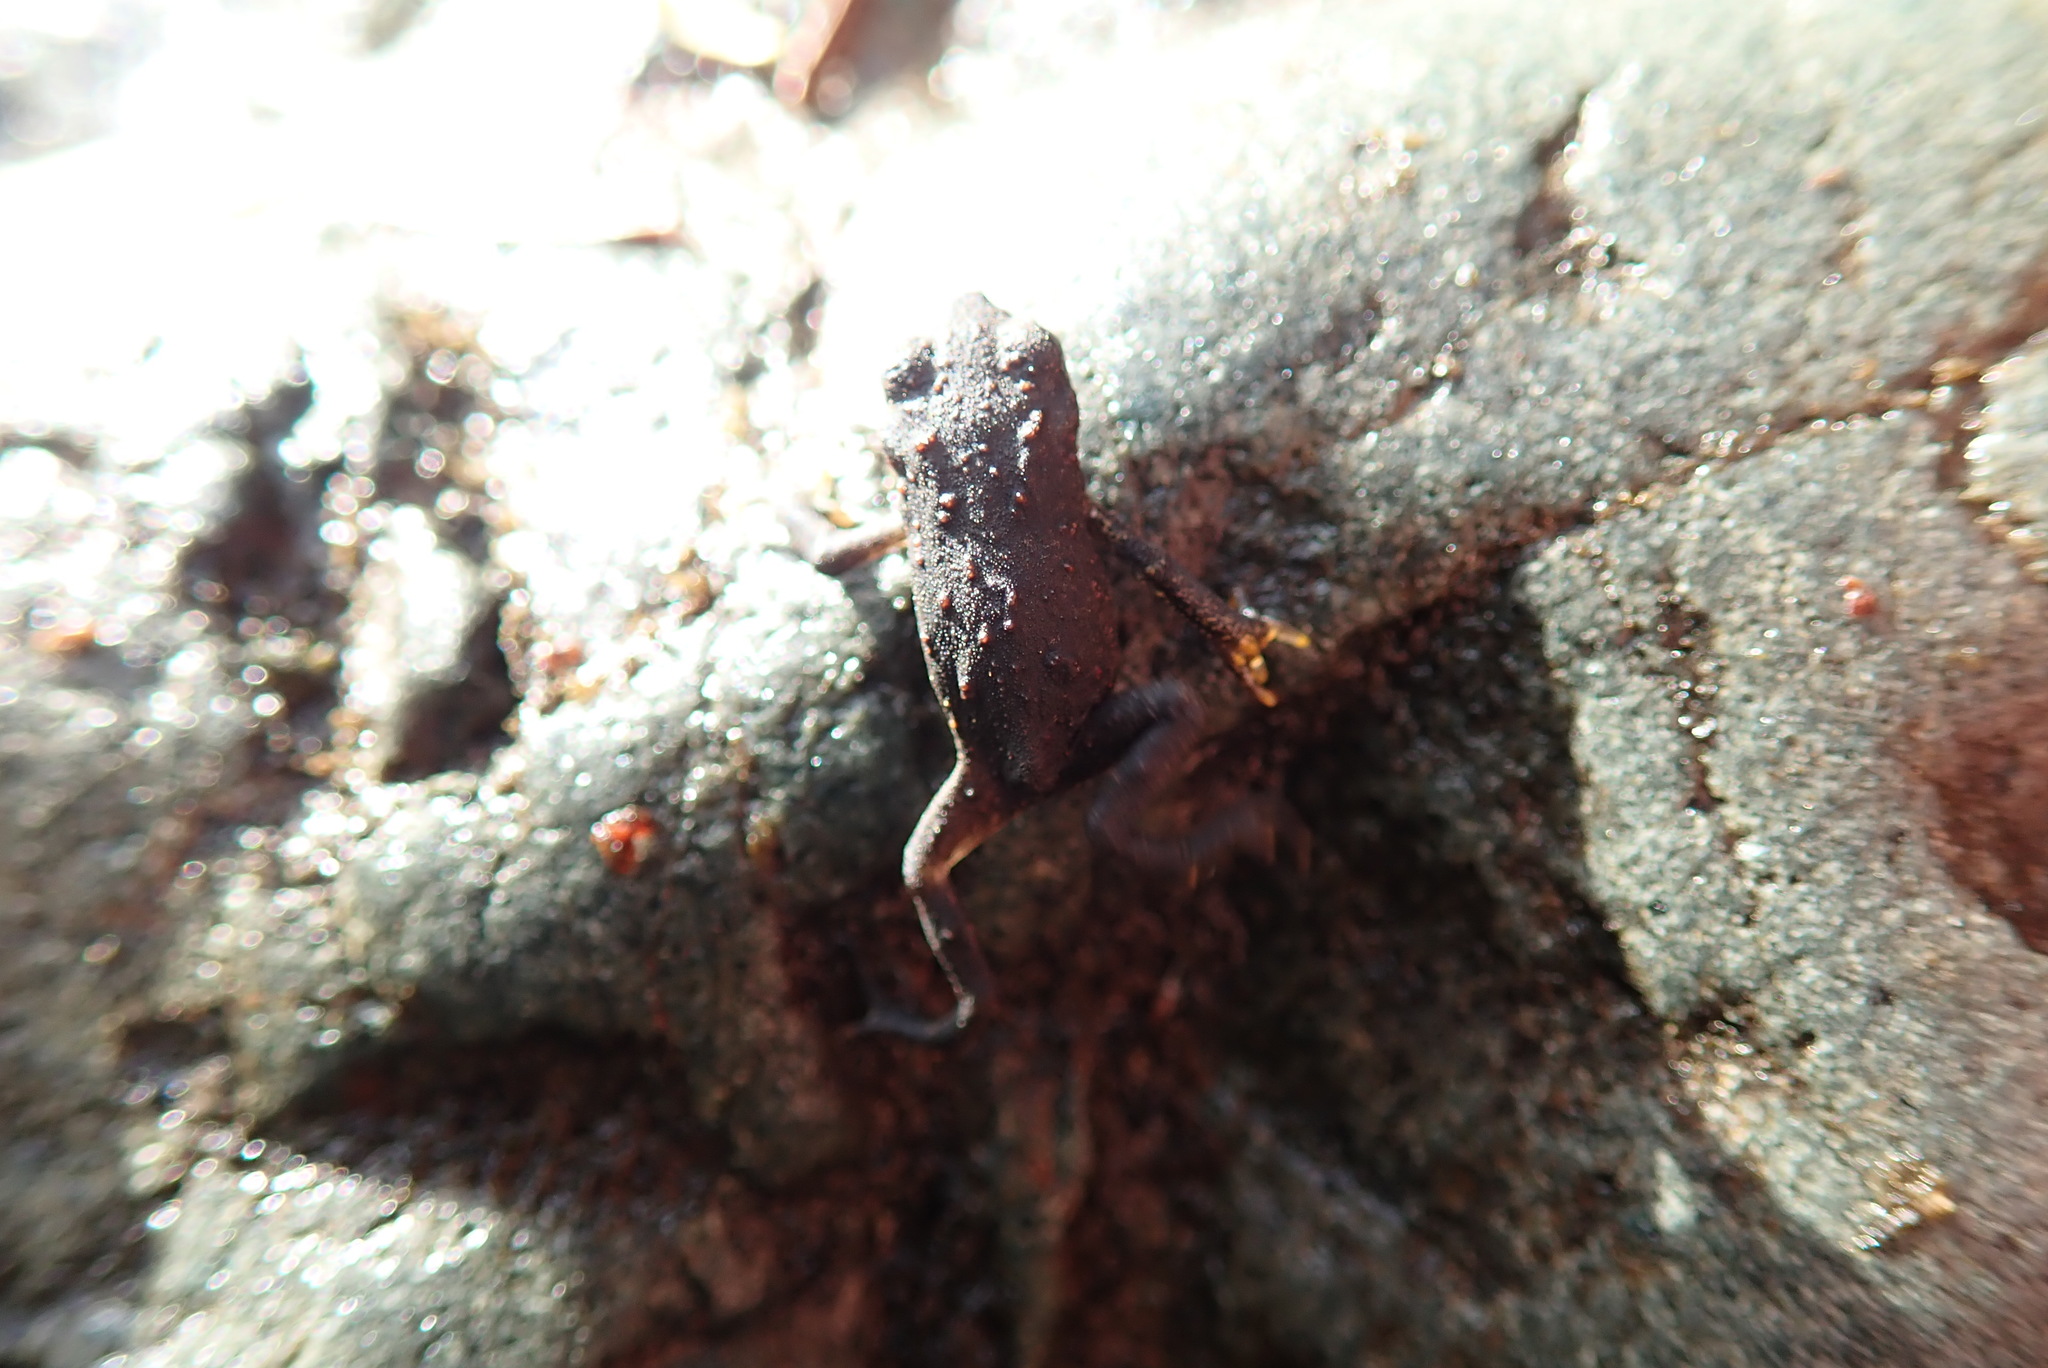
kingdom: Animalia
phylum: Chordata
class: Amphibia
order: Anura
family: Bufonidae
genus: Anaxyrus
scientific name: Anaxyrus boreas
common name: Western toad
